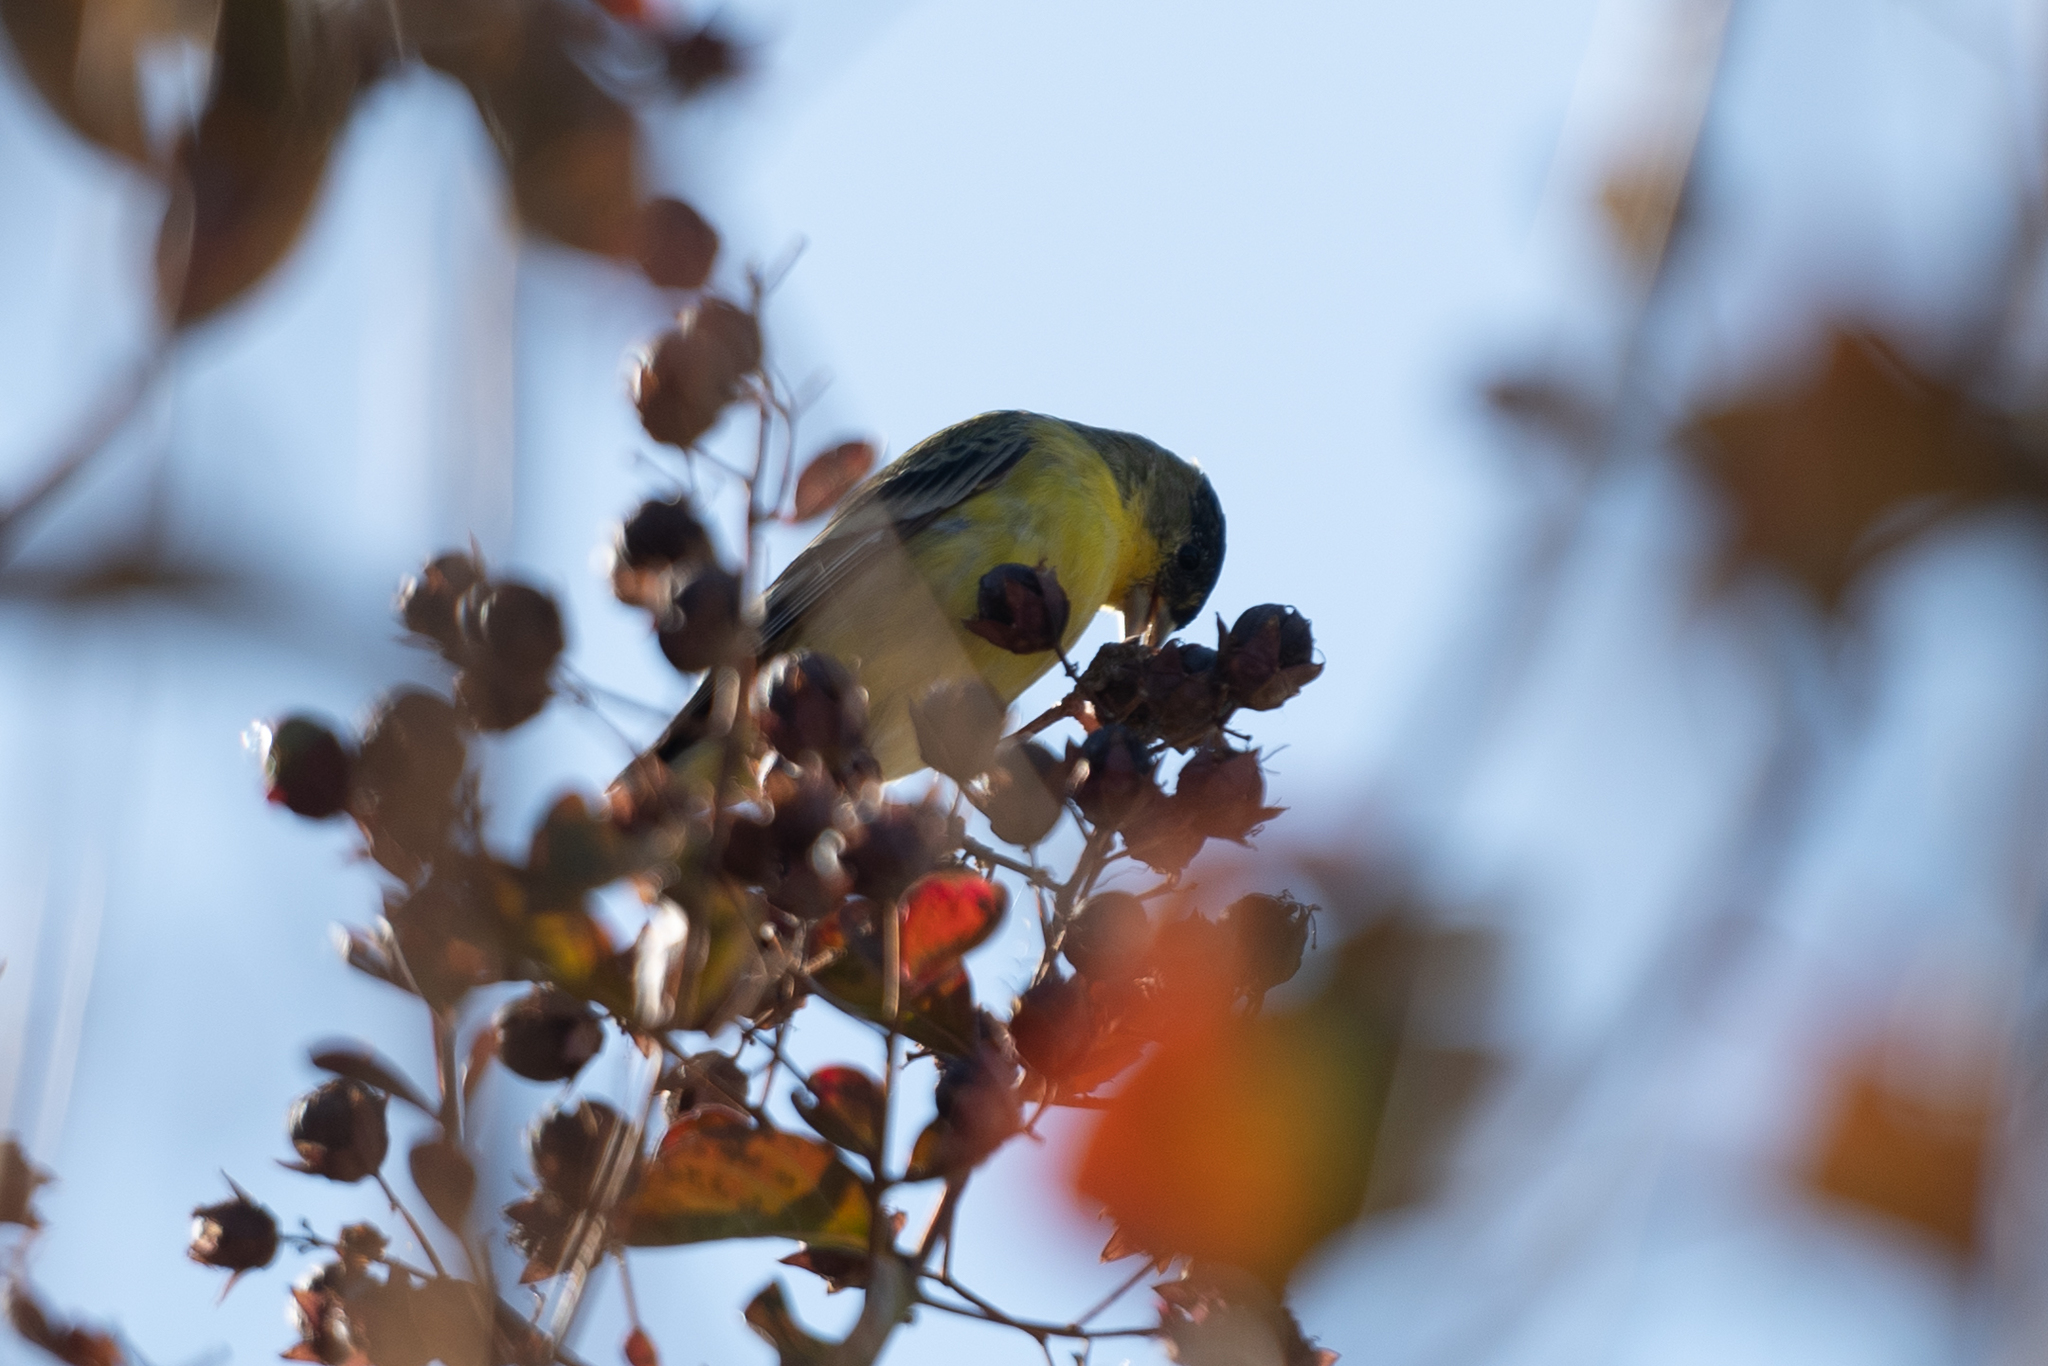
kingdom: Animalia
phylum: Chordata
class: Aves
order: Passeriformes
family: Fringillidae
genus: Spinus
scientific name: Spinus psaltria
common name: Lesser goldfinch
